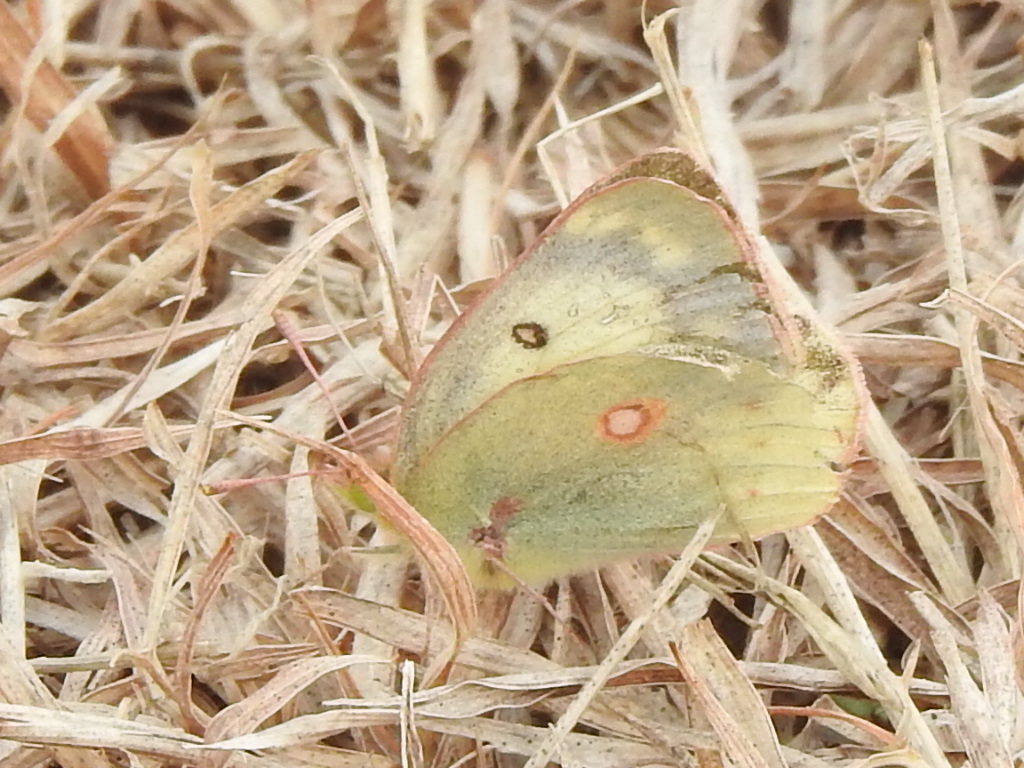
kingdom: Animalia
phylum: Arthropoda
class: Insecta
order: Lepidoptera
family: Pieridae
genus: Colias
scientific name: Colias eurytheme
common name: Alfalfa butterfly
